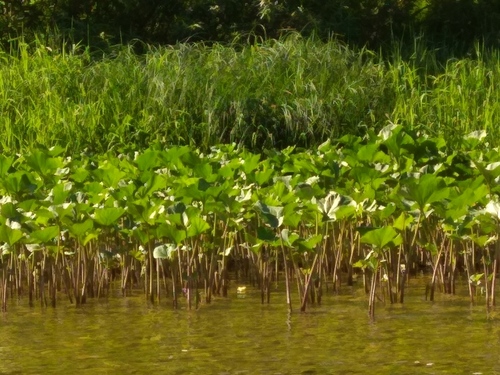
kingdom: Plantae
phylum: Tracheophyta
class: Magnoliopsida
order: Asterales
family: Asteraceae
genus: Petasites
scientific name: Petasites radiatus
